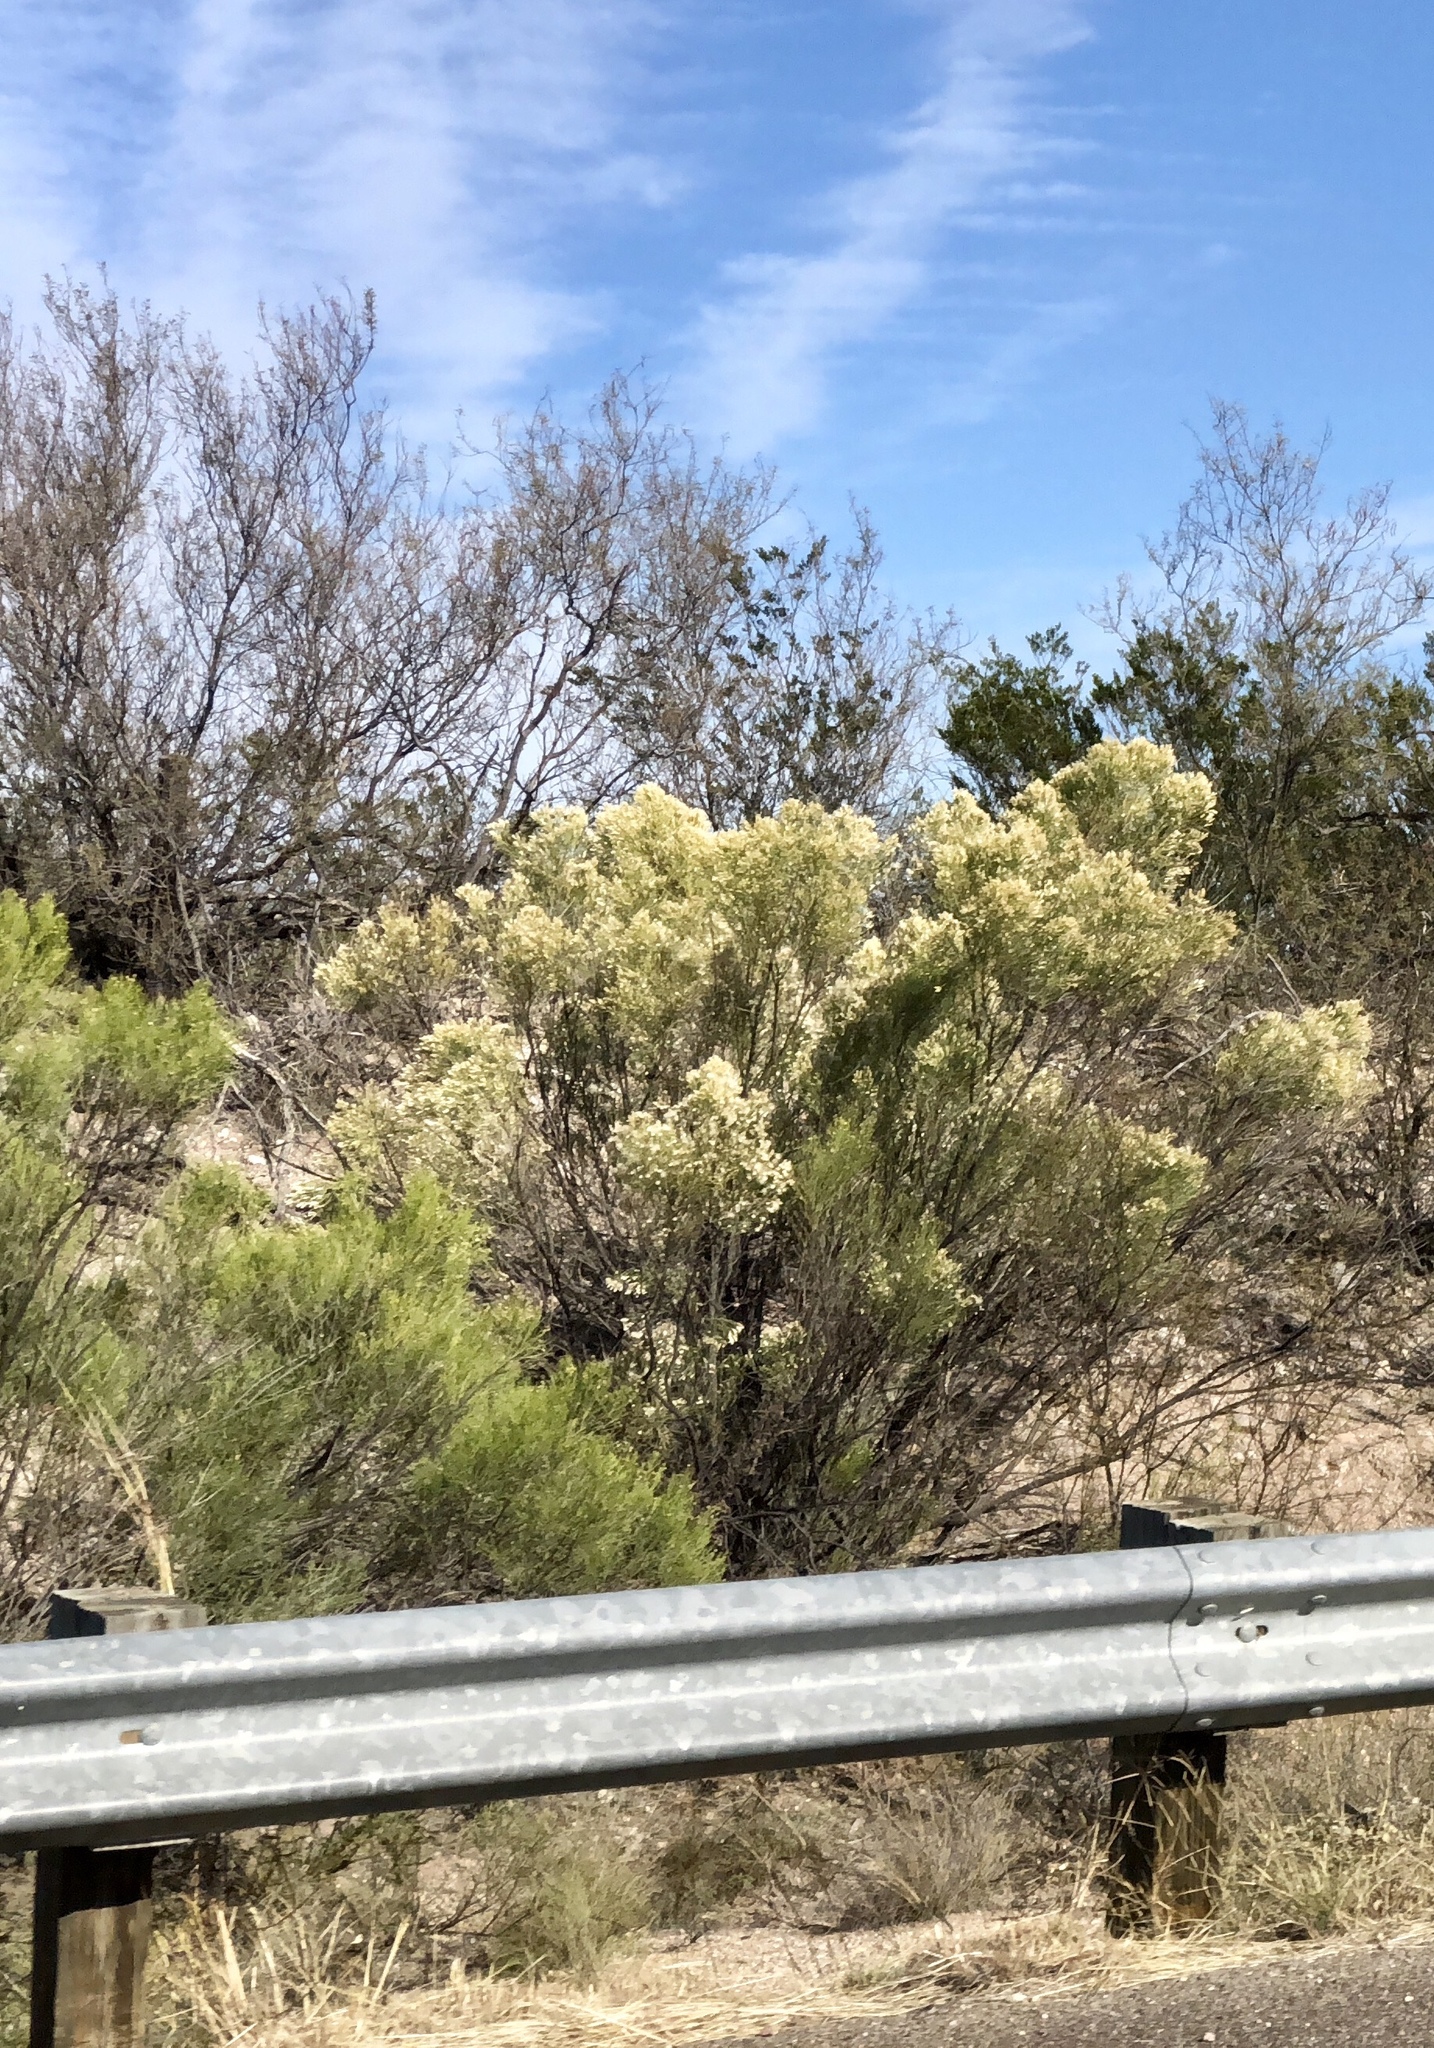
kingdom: Plantae
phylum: Tracheophyta
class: Magnoliopsida
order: Asterales
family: Asteraceae
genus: Baccharis
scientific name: Baccharis sarothroides
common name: Desert-broom
